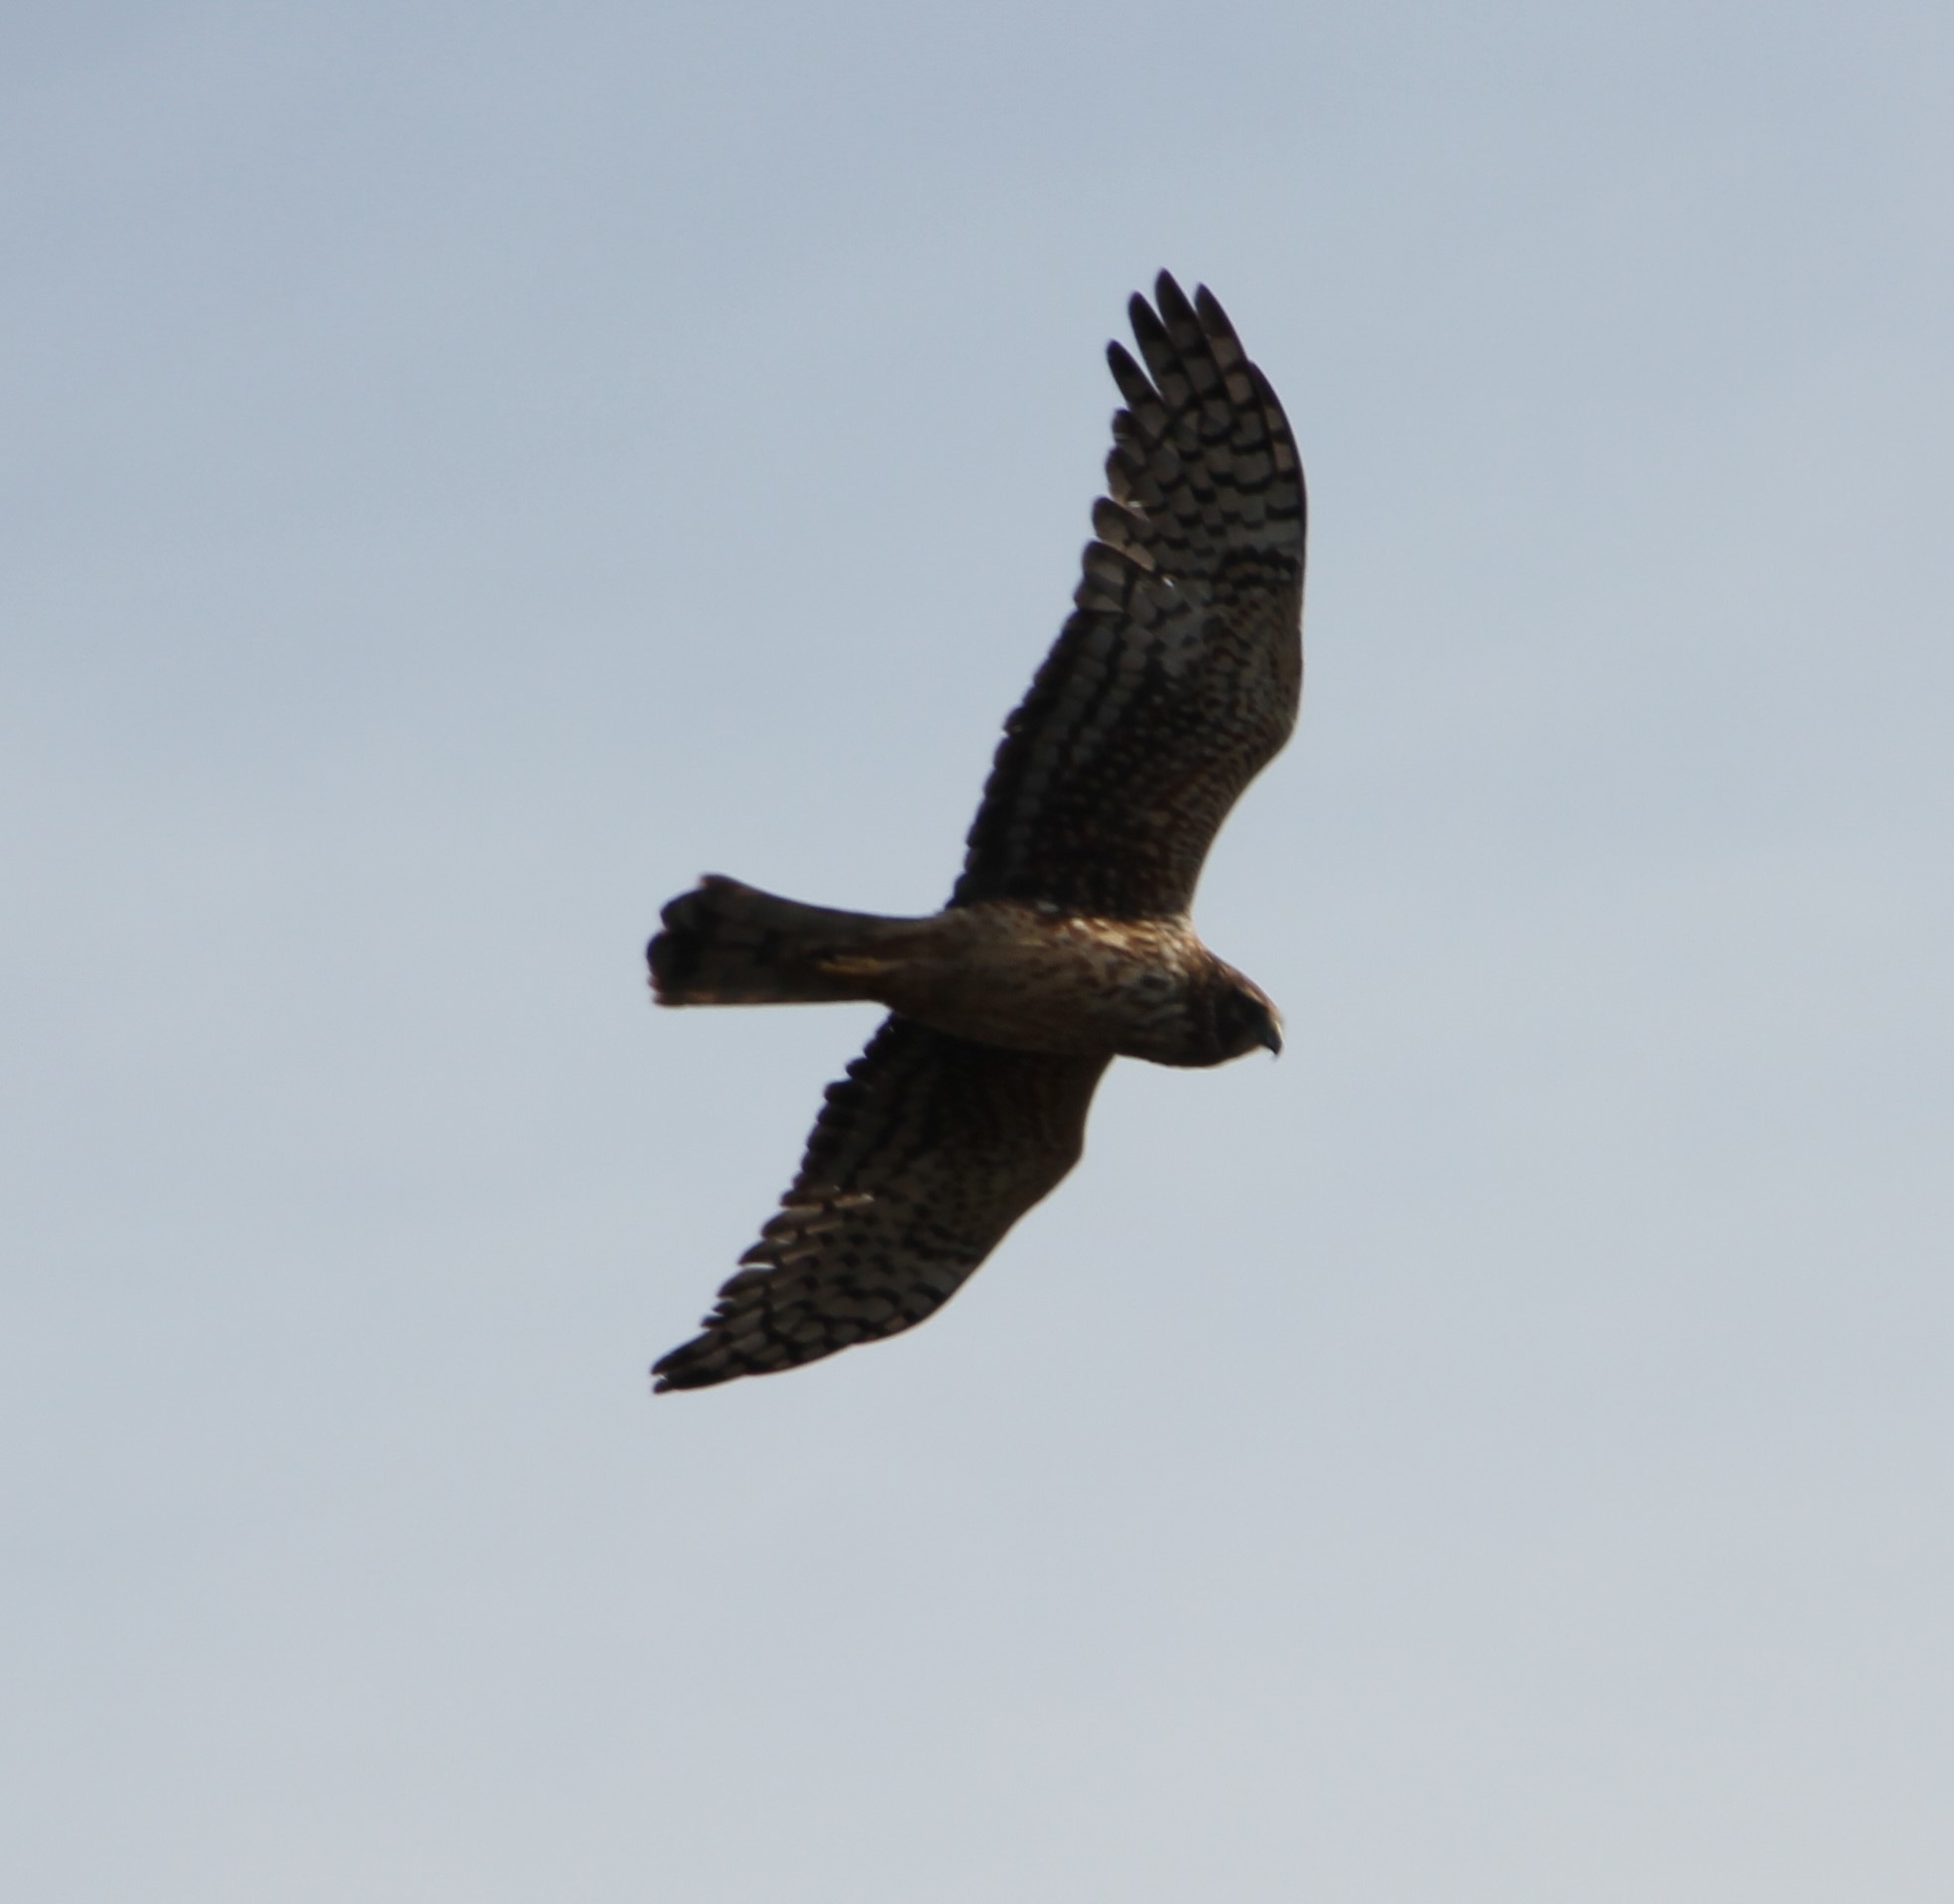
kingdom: Animalia
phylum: Chordata
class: Aves
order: Accipitriformes
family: Accipitridae
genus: Circus
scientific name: Circus cyaneus
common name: Hen harrier
